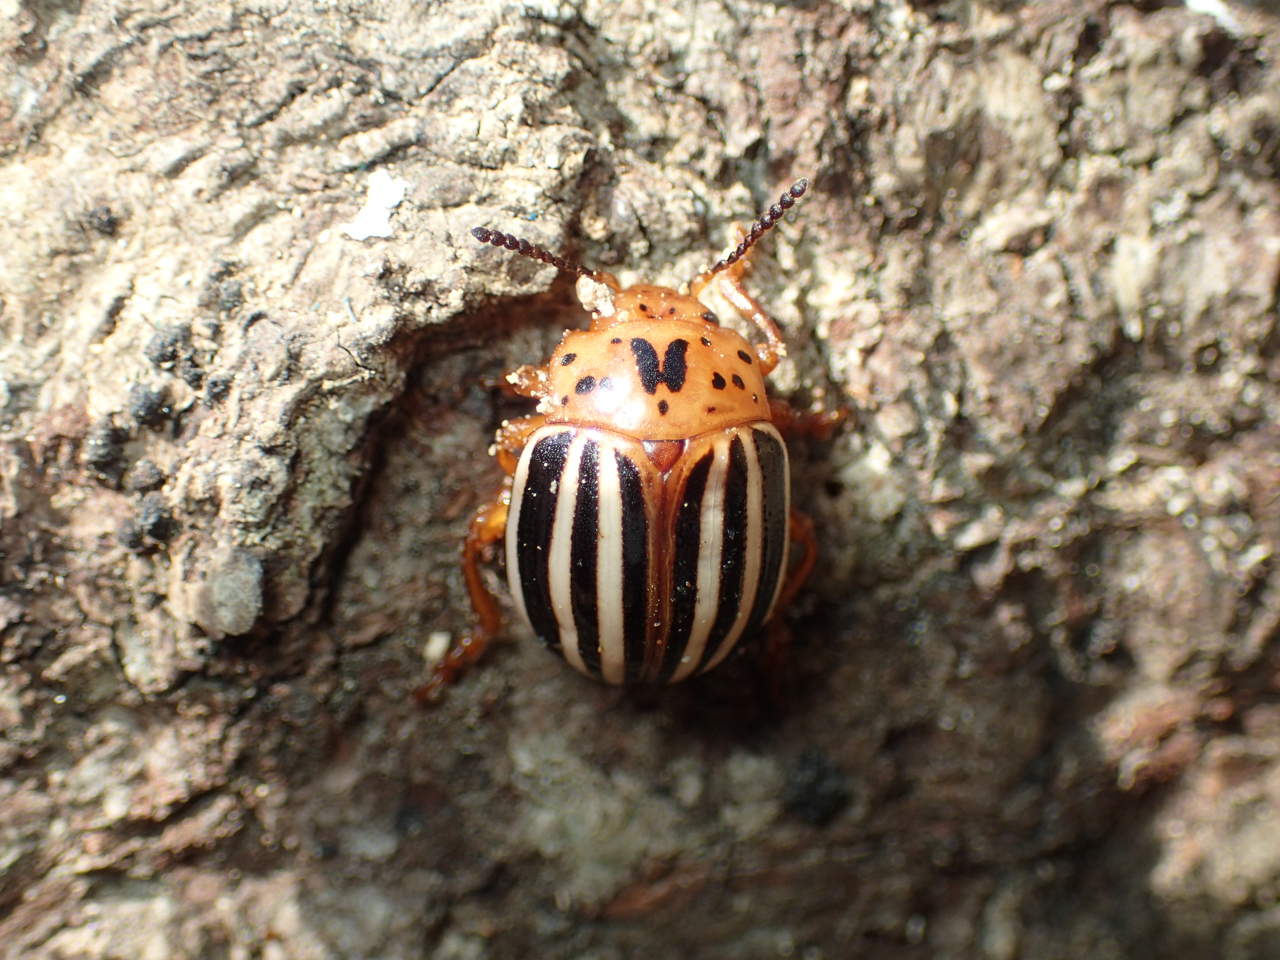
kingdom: Animalia
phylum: Arthropoda
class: Insecta
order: Coleoptera
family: Chrysomelidae
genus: Leptinotarsa
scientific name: Leptinotarsa juncta
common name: False potato beetle
